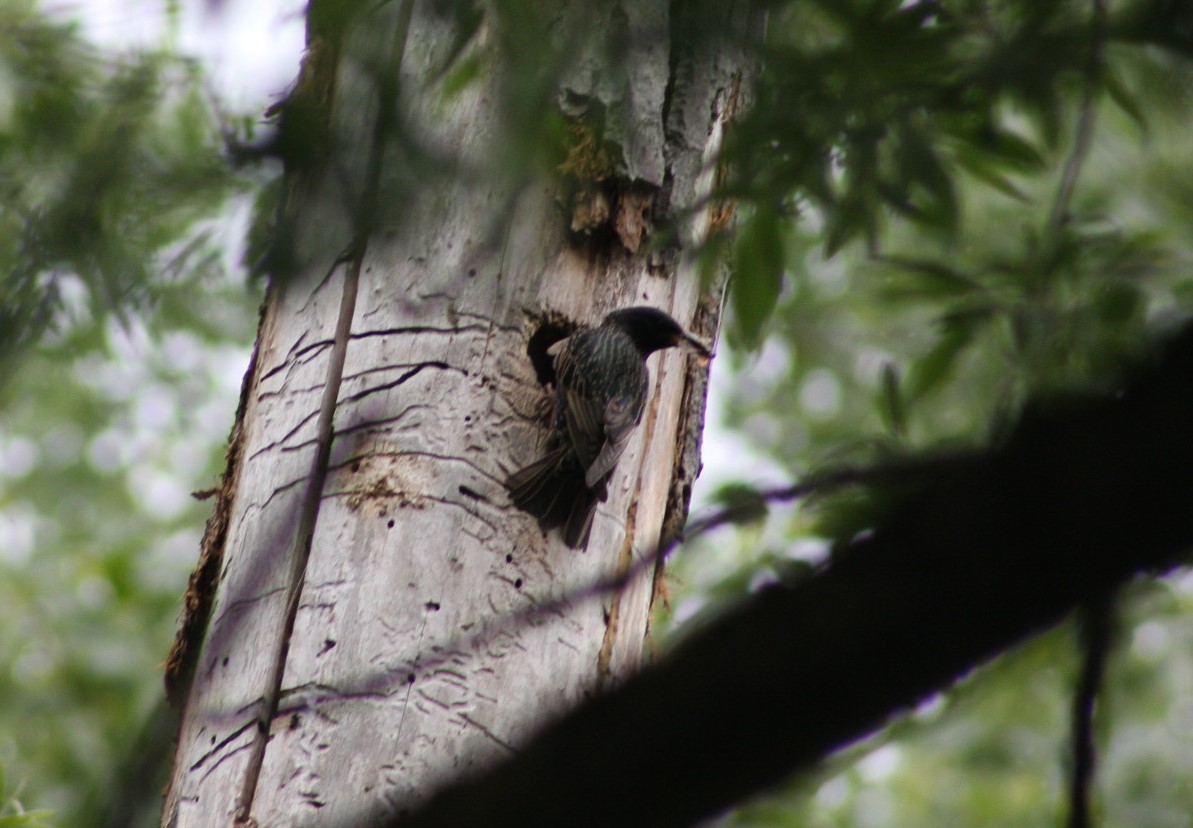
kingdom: Animalia
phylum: Chordata
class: Aves
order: Passeriformes
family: Sturnidae
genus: Sturnus
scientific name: Sturnus vulgaris
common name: Common starling
